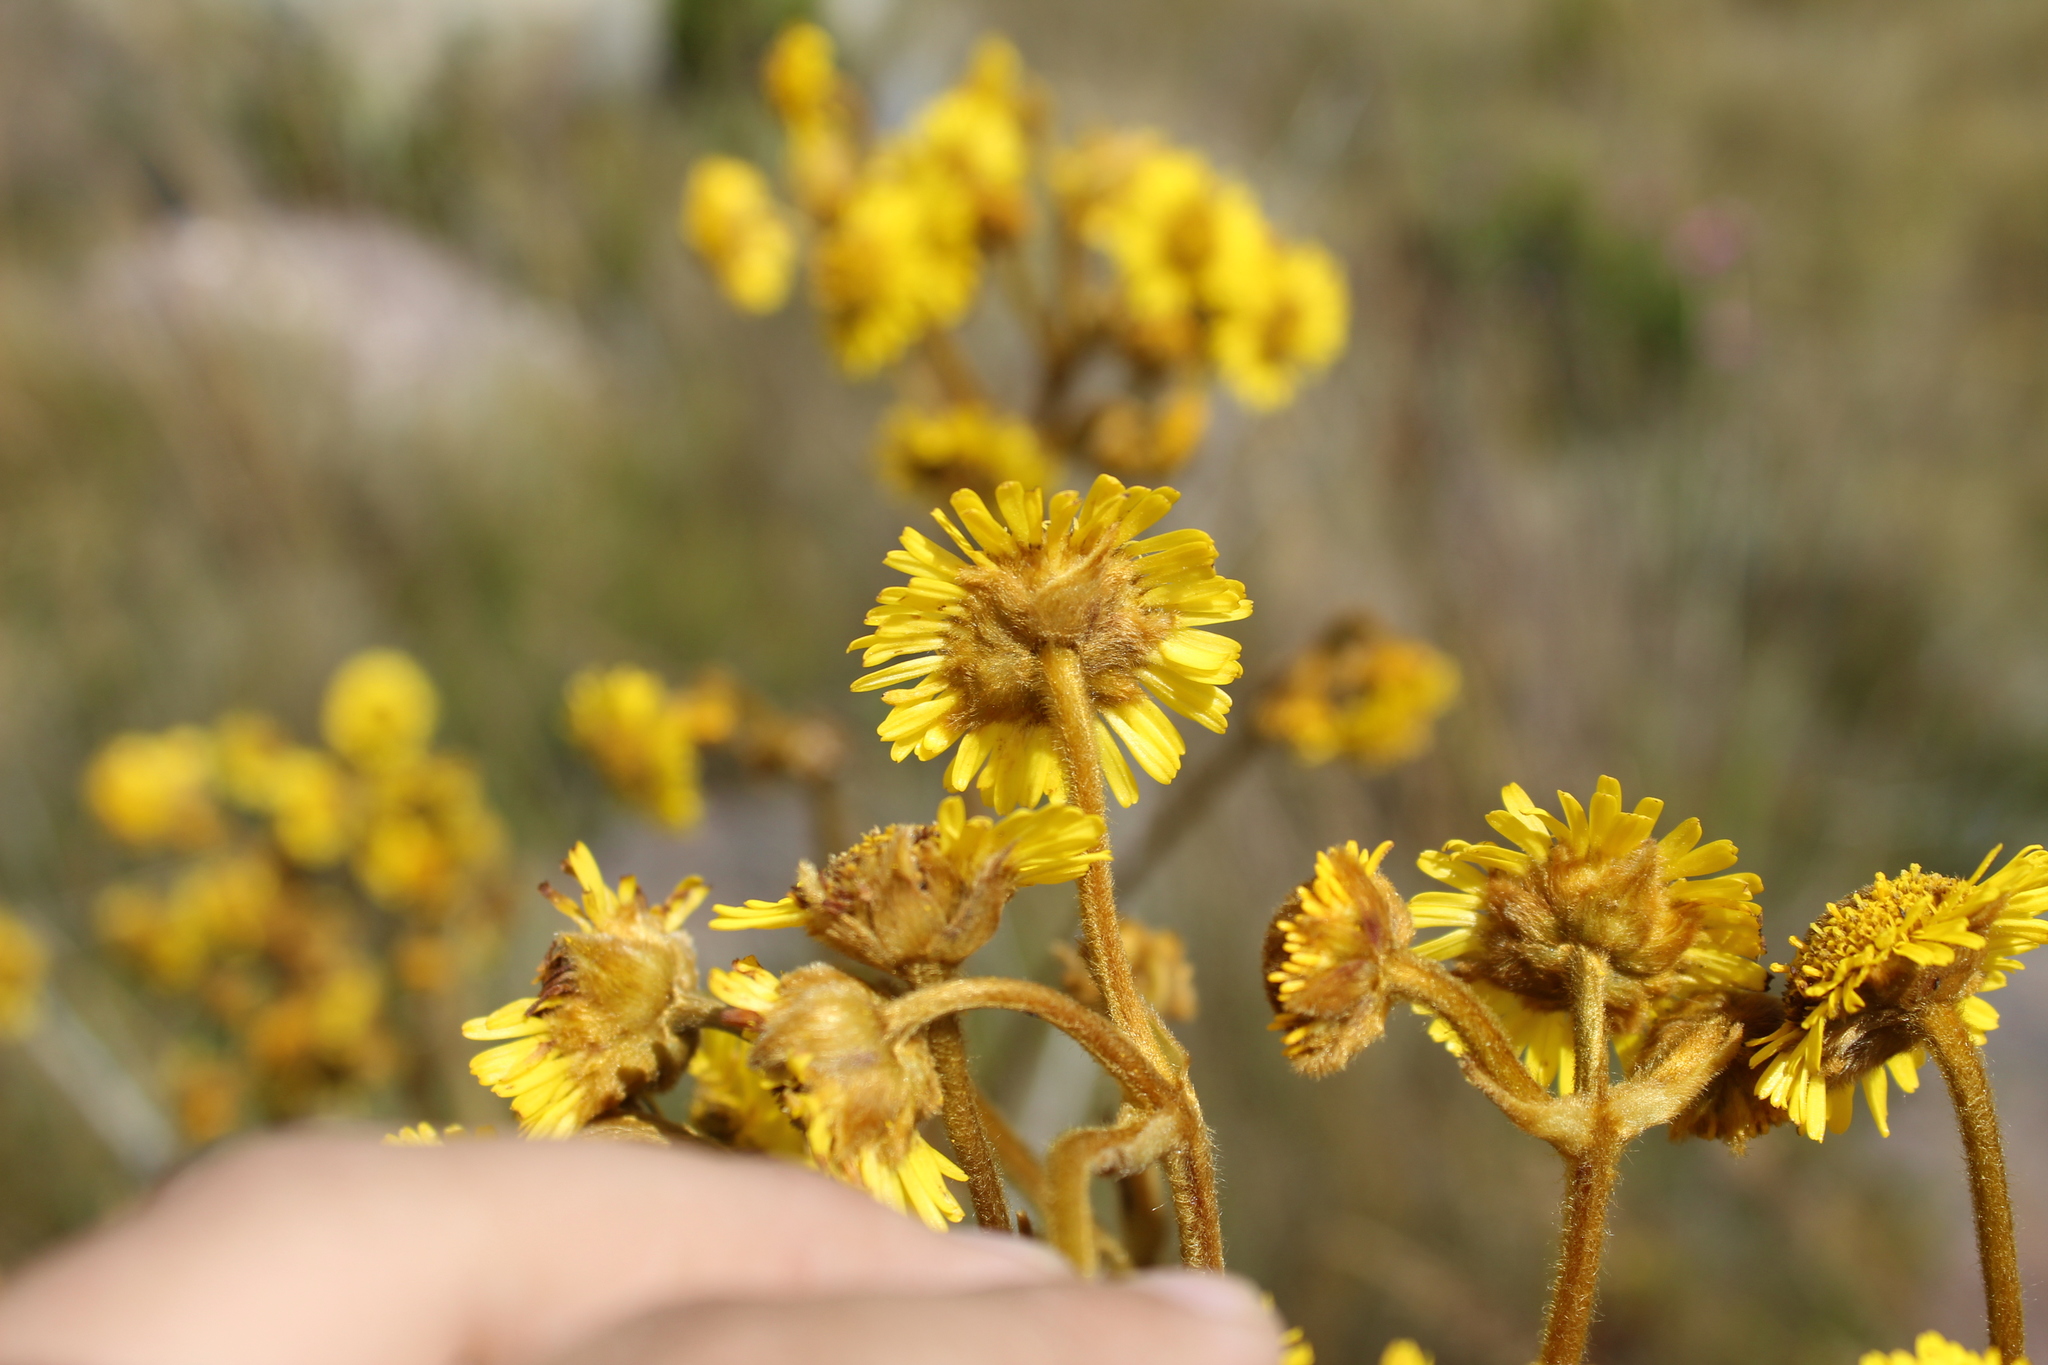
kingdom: Plantae
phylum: Tracheophyta
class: Magnoliopsida
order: Asterales
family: Asteraceae
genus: Espeletia
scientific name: Espeletia boyacensis
